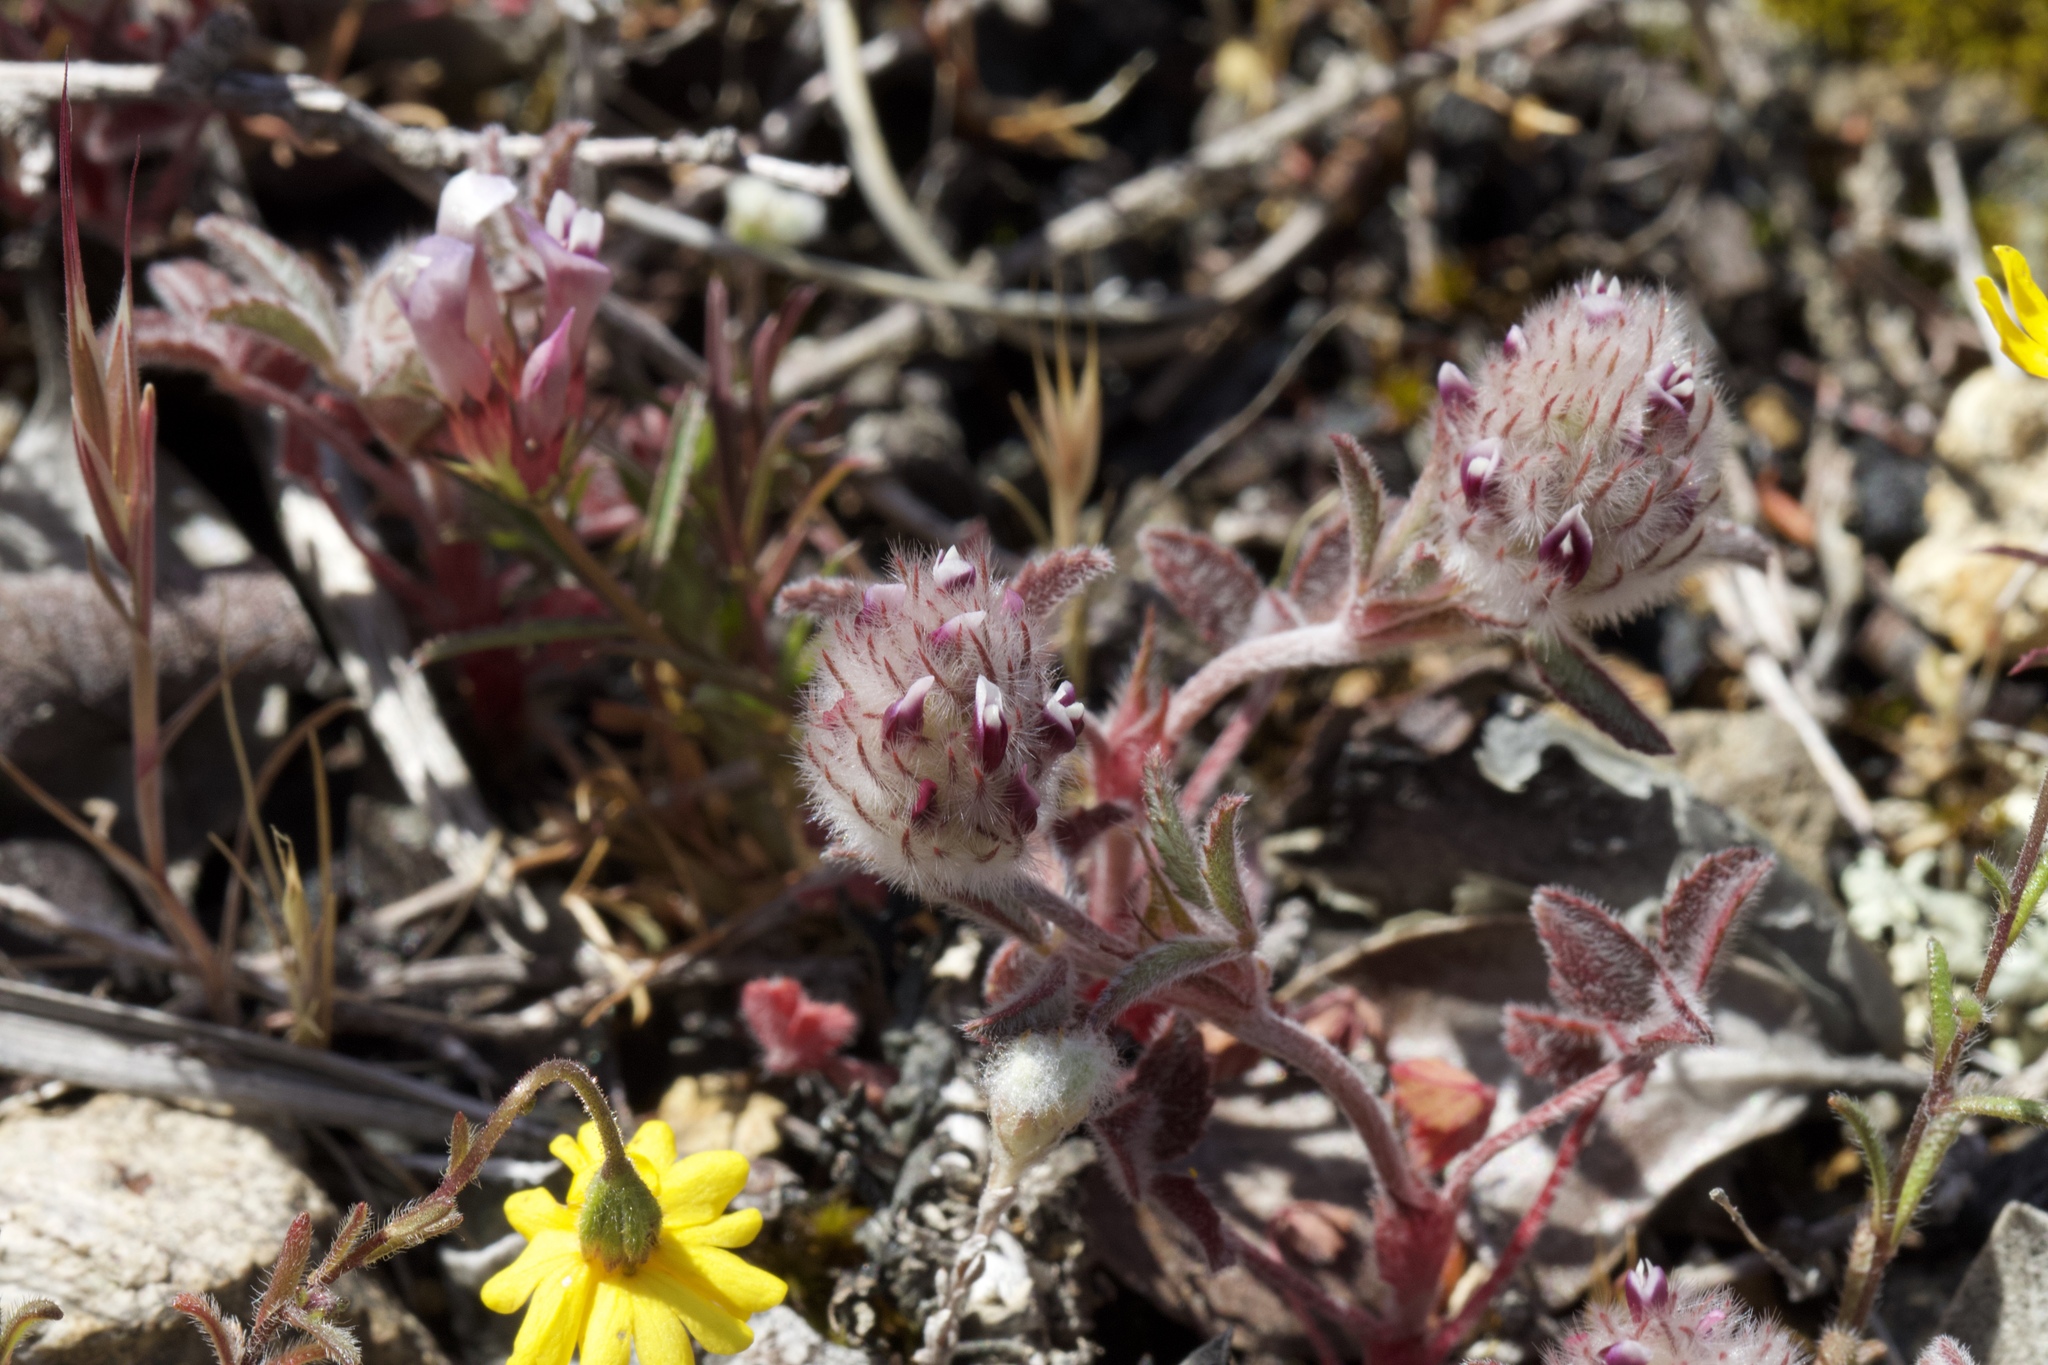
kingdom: Plantae
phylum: Tracheophyta
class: Magnoliopsida
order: Fabales
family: Fabaceae
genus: Trifolium
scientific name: Trifolium albopurpureum
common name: Rancheria clover
